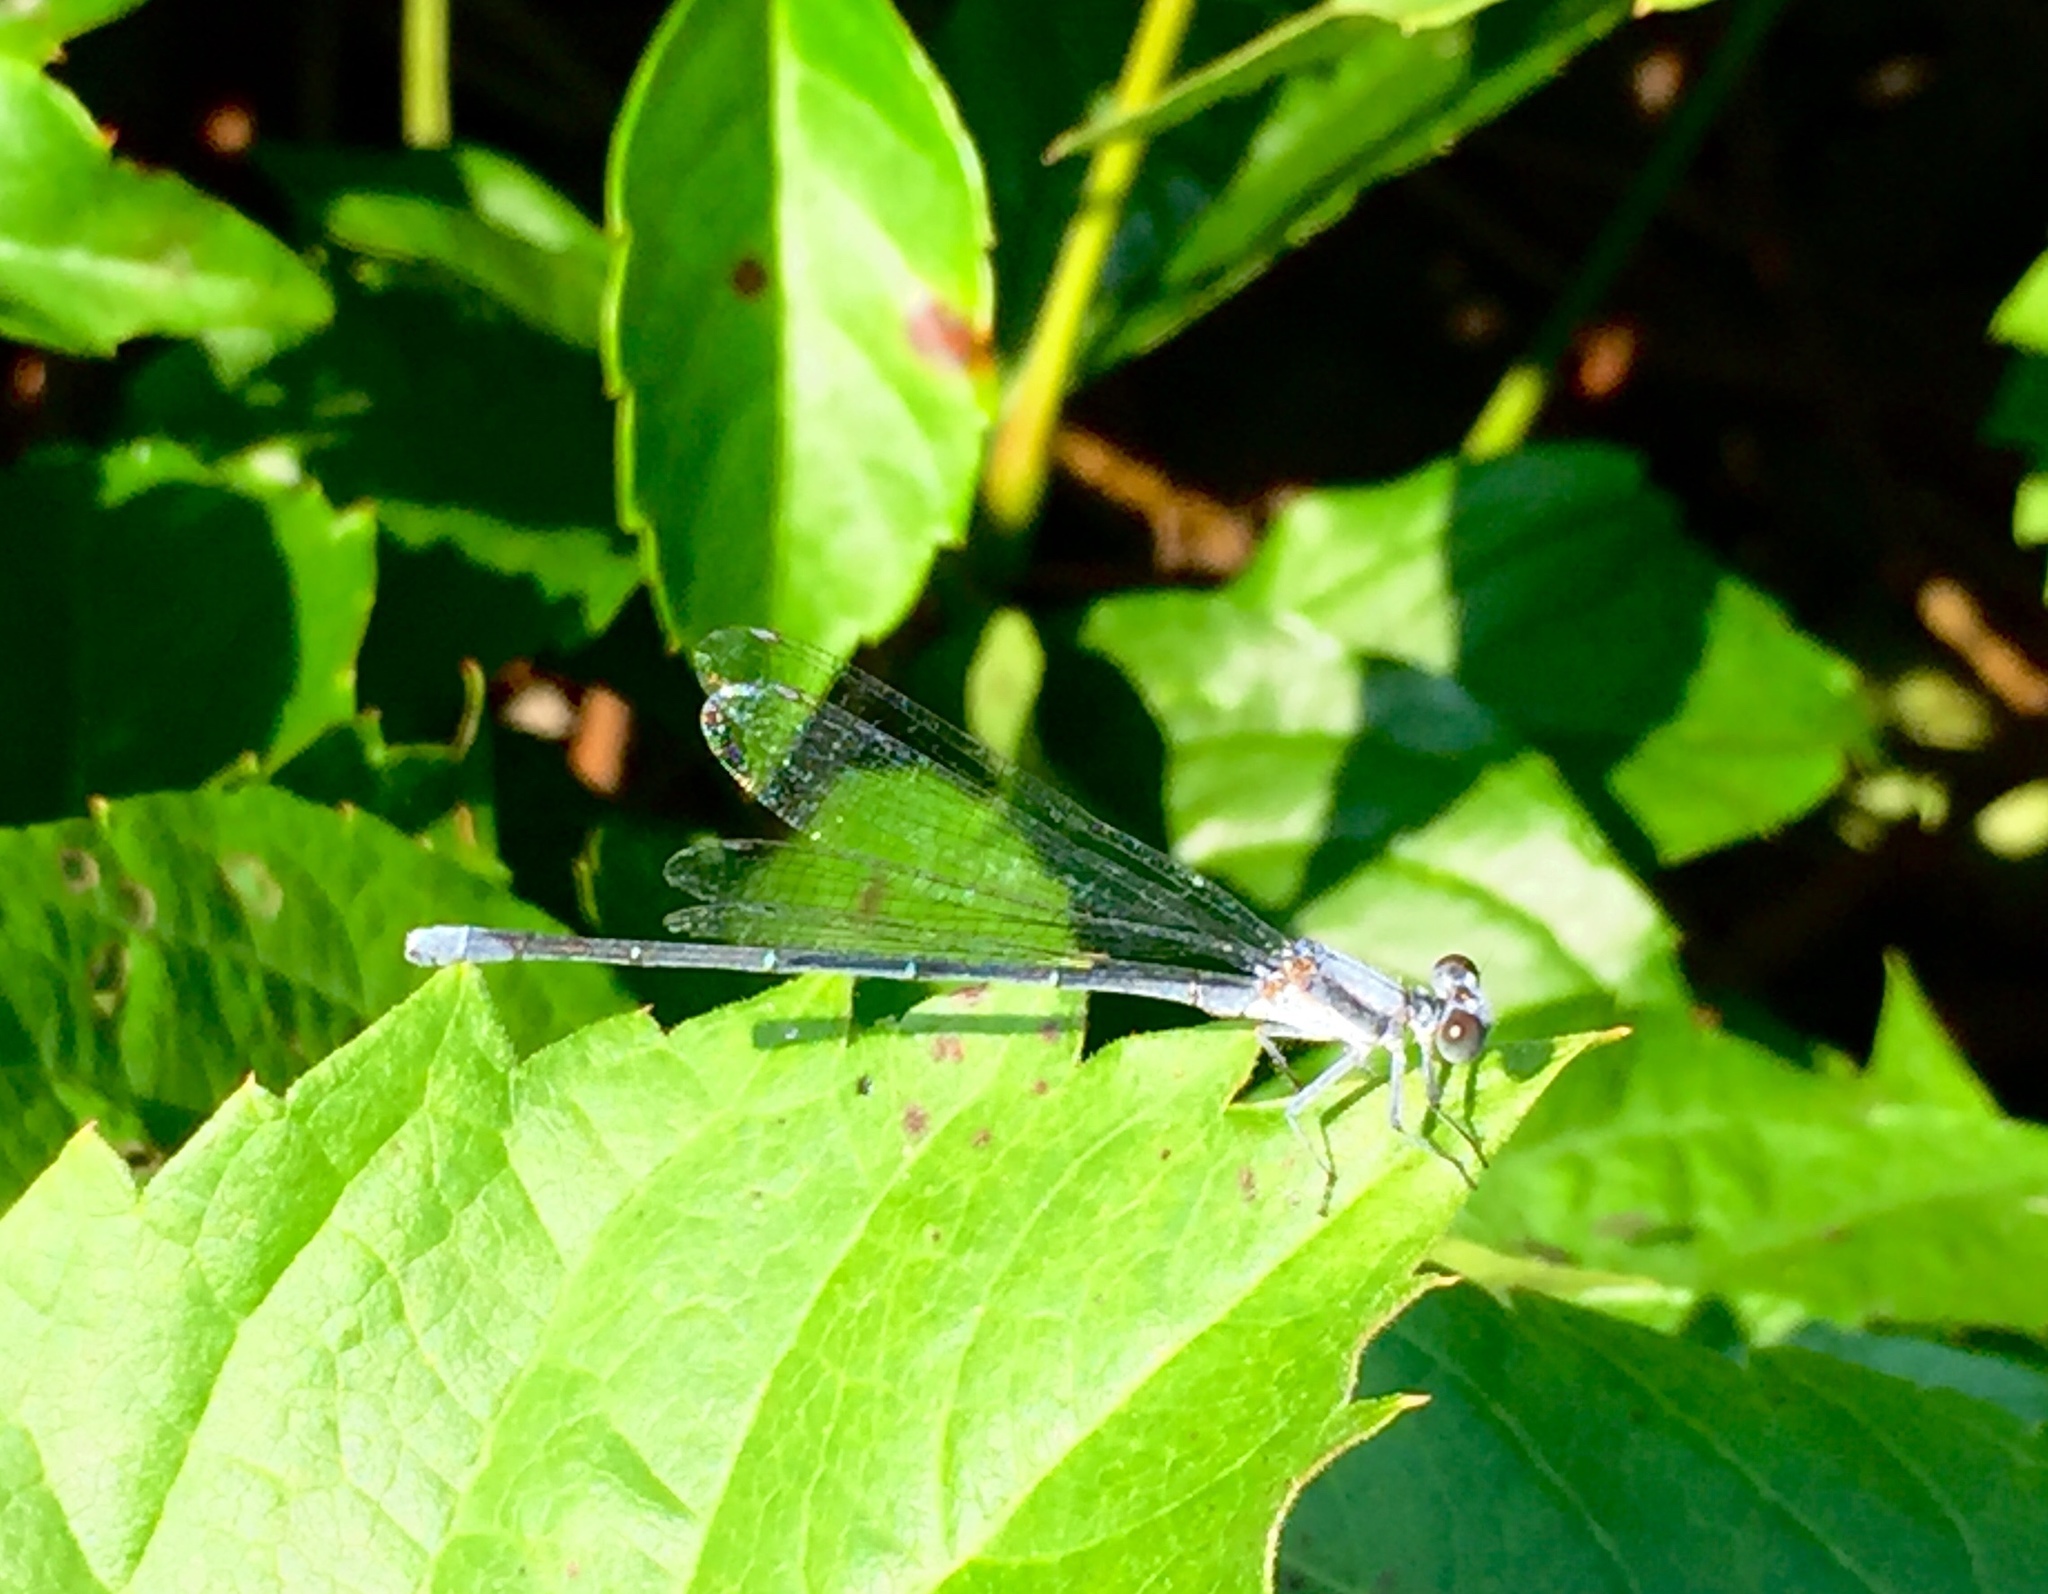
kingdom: Animalia
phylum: Arthropoda
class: Insecta
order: Odonata
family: Coenagrionidae
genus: Argia
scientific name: Argia moesta
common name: Powdered dancer
